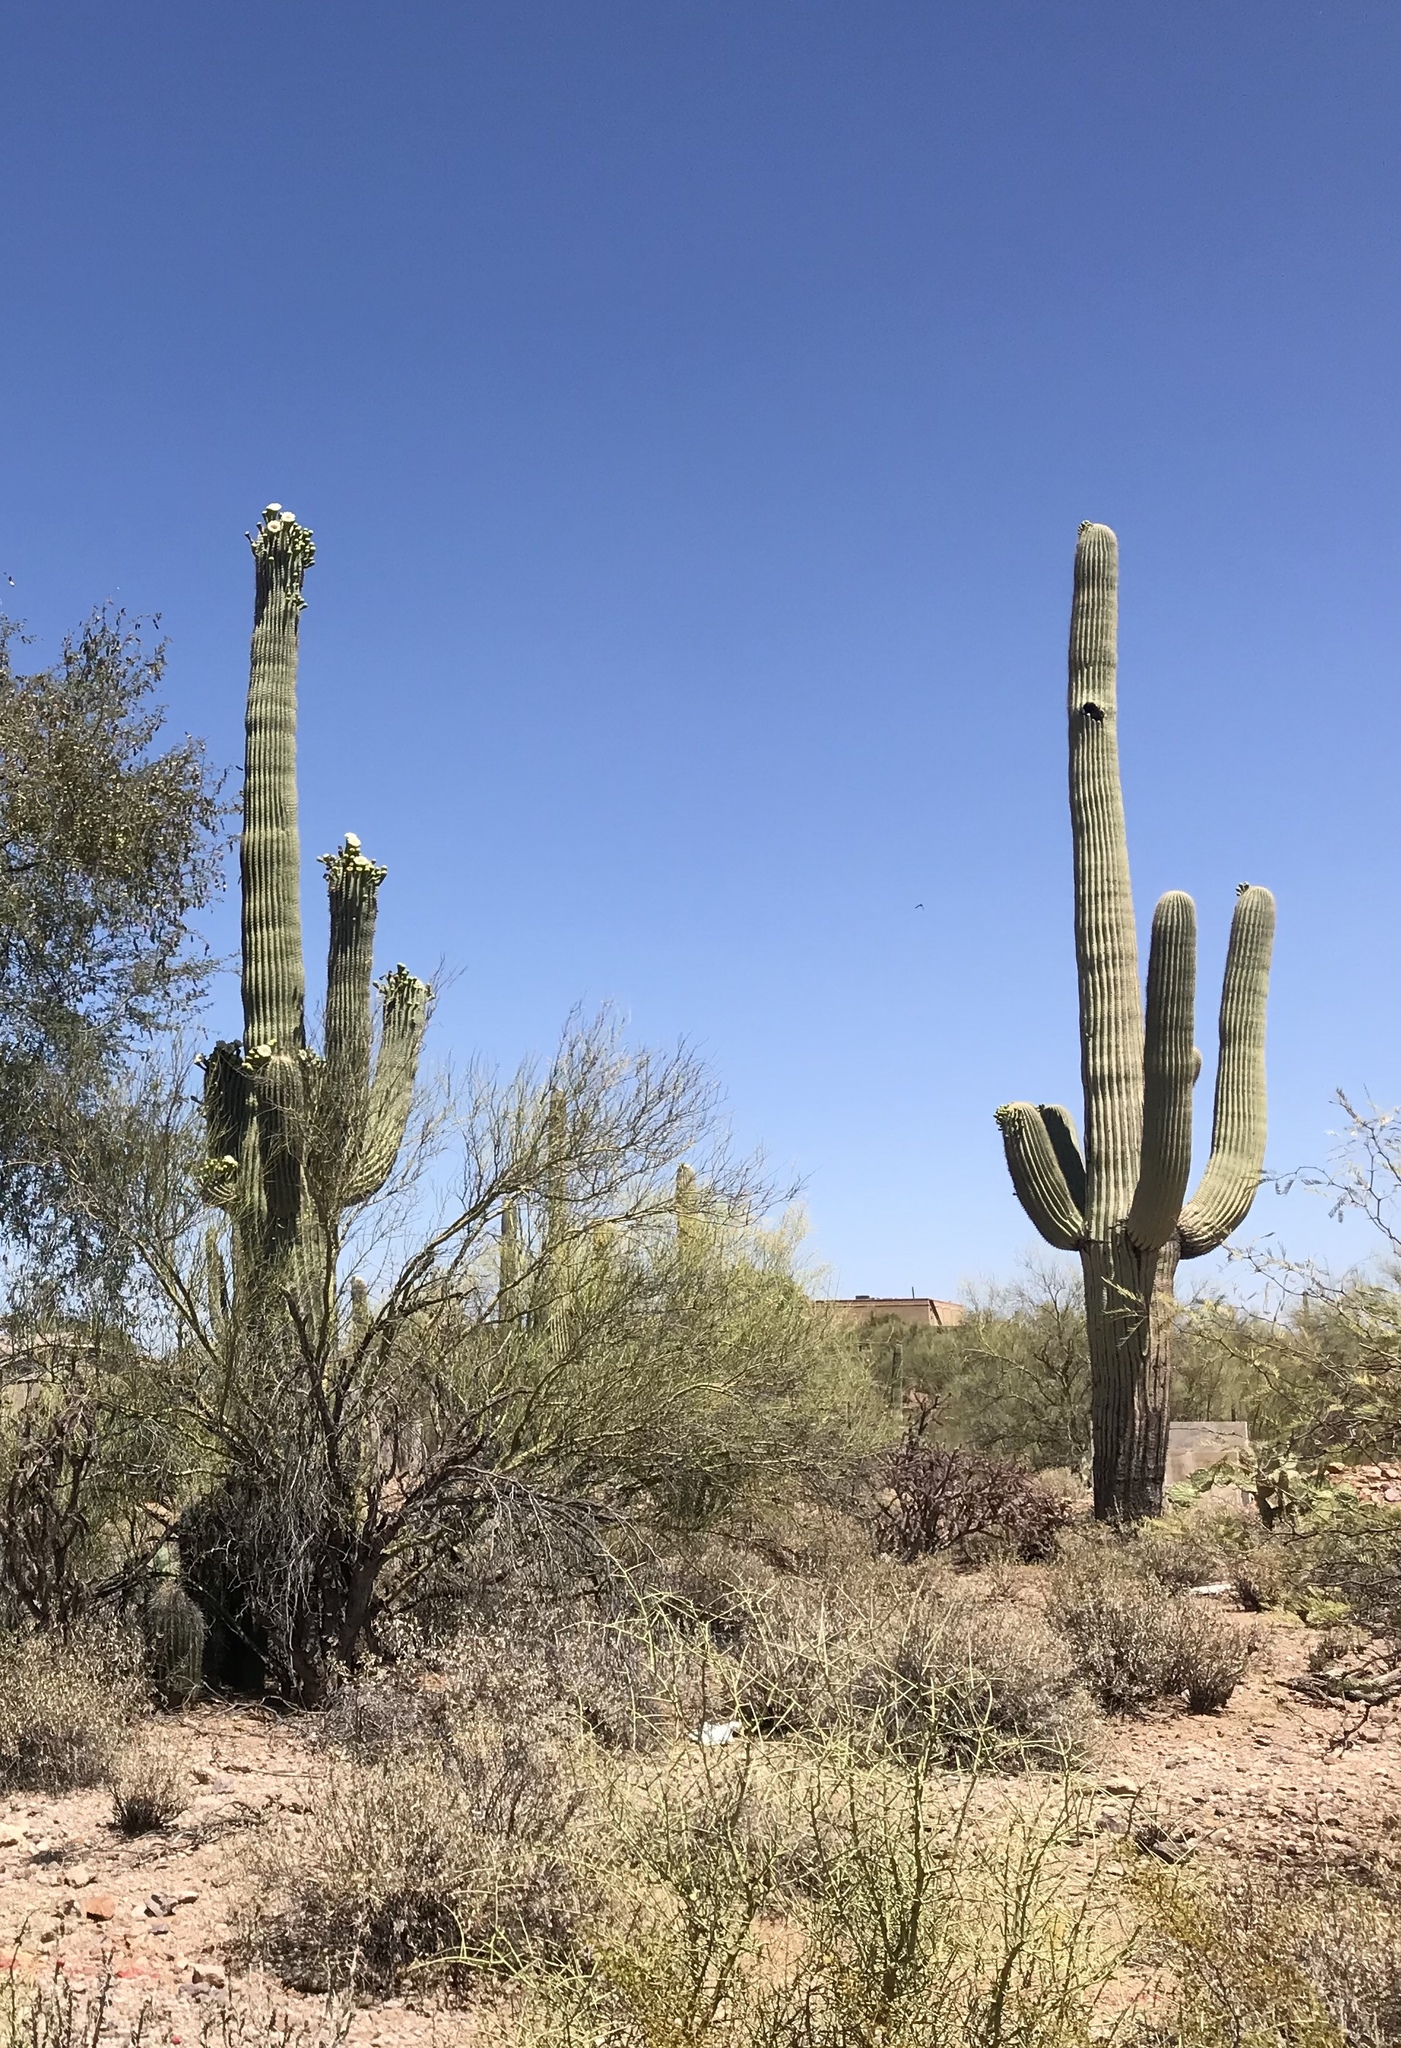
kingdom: Plantae
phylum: Tracheophyta
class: Magnoliopsida
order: Caryophyllales
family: Cactaceae
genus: Carnegiea
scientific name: Carnegiea gigantea
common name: Saguaro
